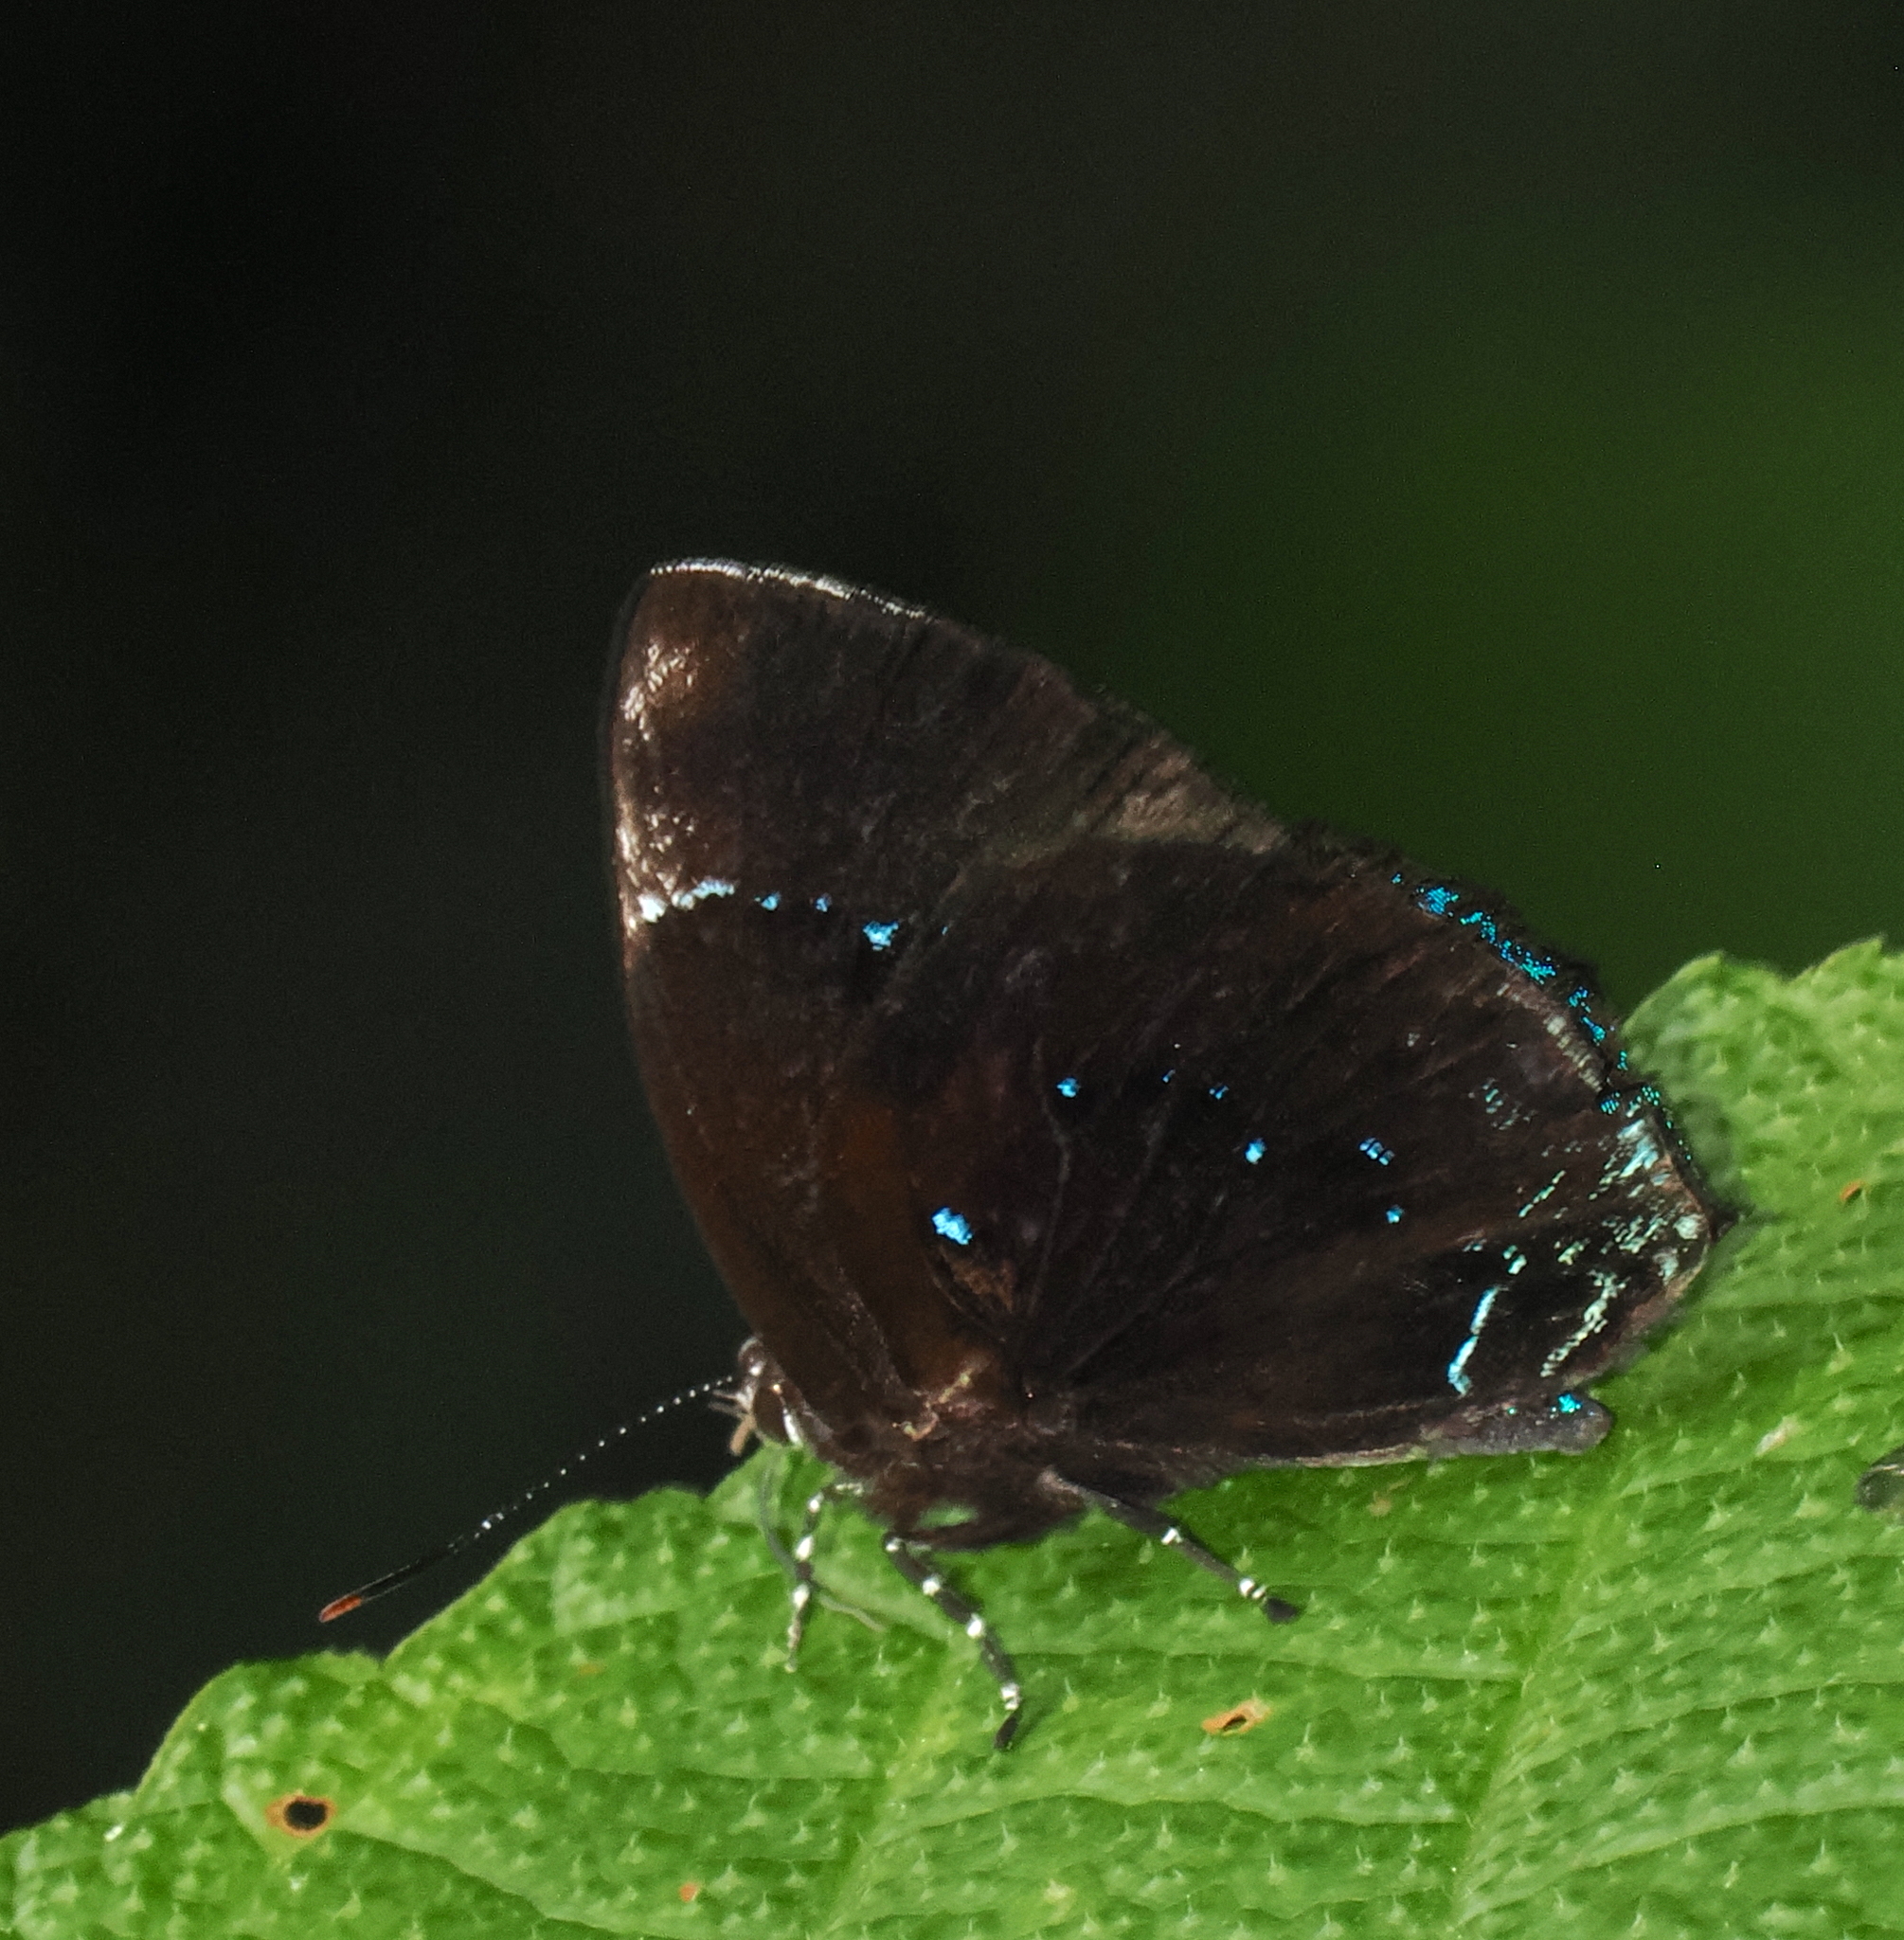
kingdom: Animalia
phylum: Arthropoda
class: Insecta
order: Lepidoptera
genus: Paraspiculatus
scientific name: Paraspiculatus grande
